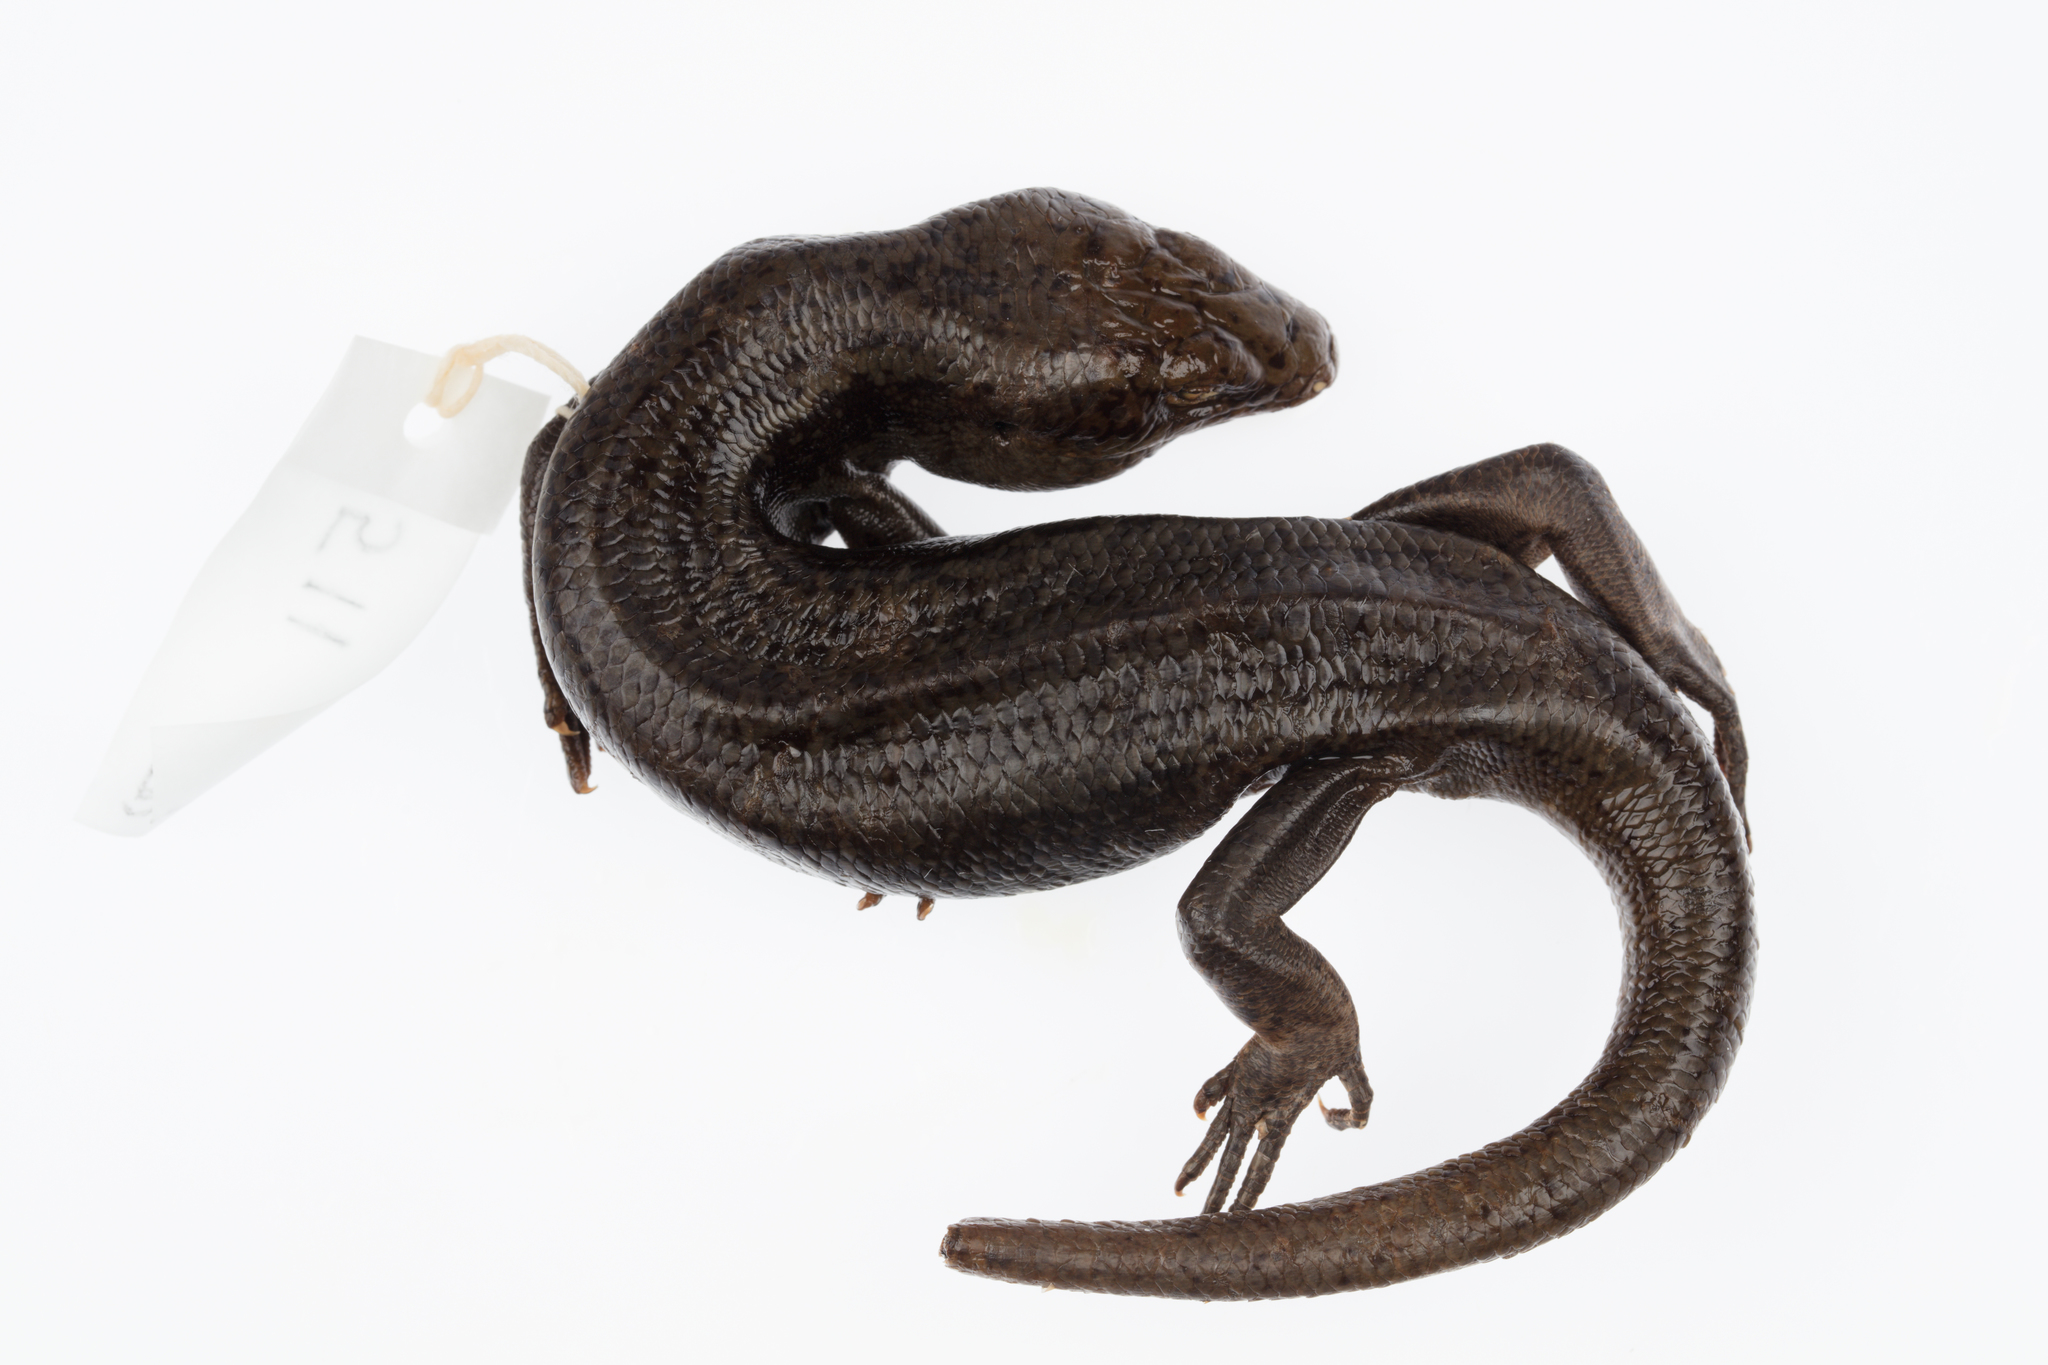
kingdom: Animalia
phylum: Chordata
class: Squamata
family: Scincidae
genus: Oligosoma
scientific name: Oligosoma fallai
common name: Falla's skink
